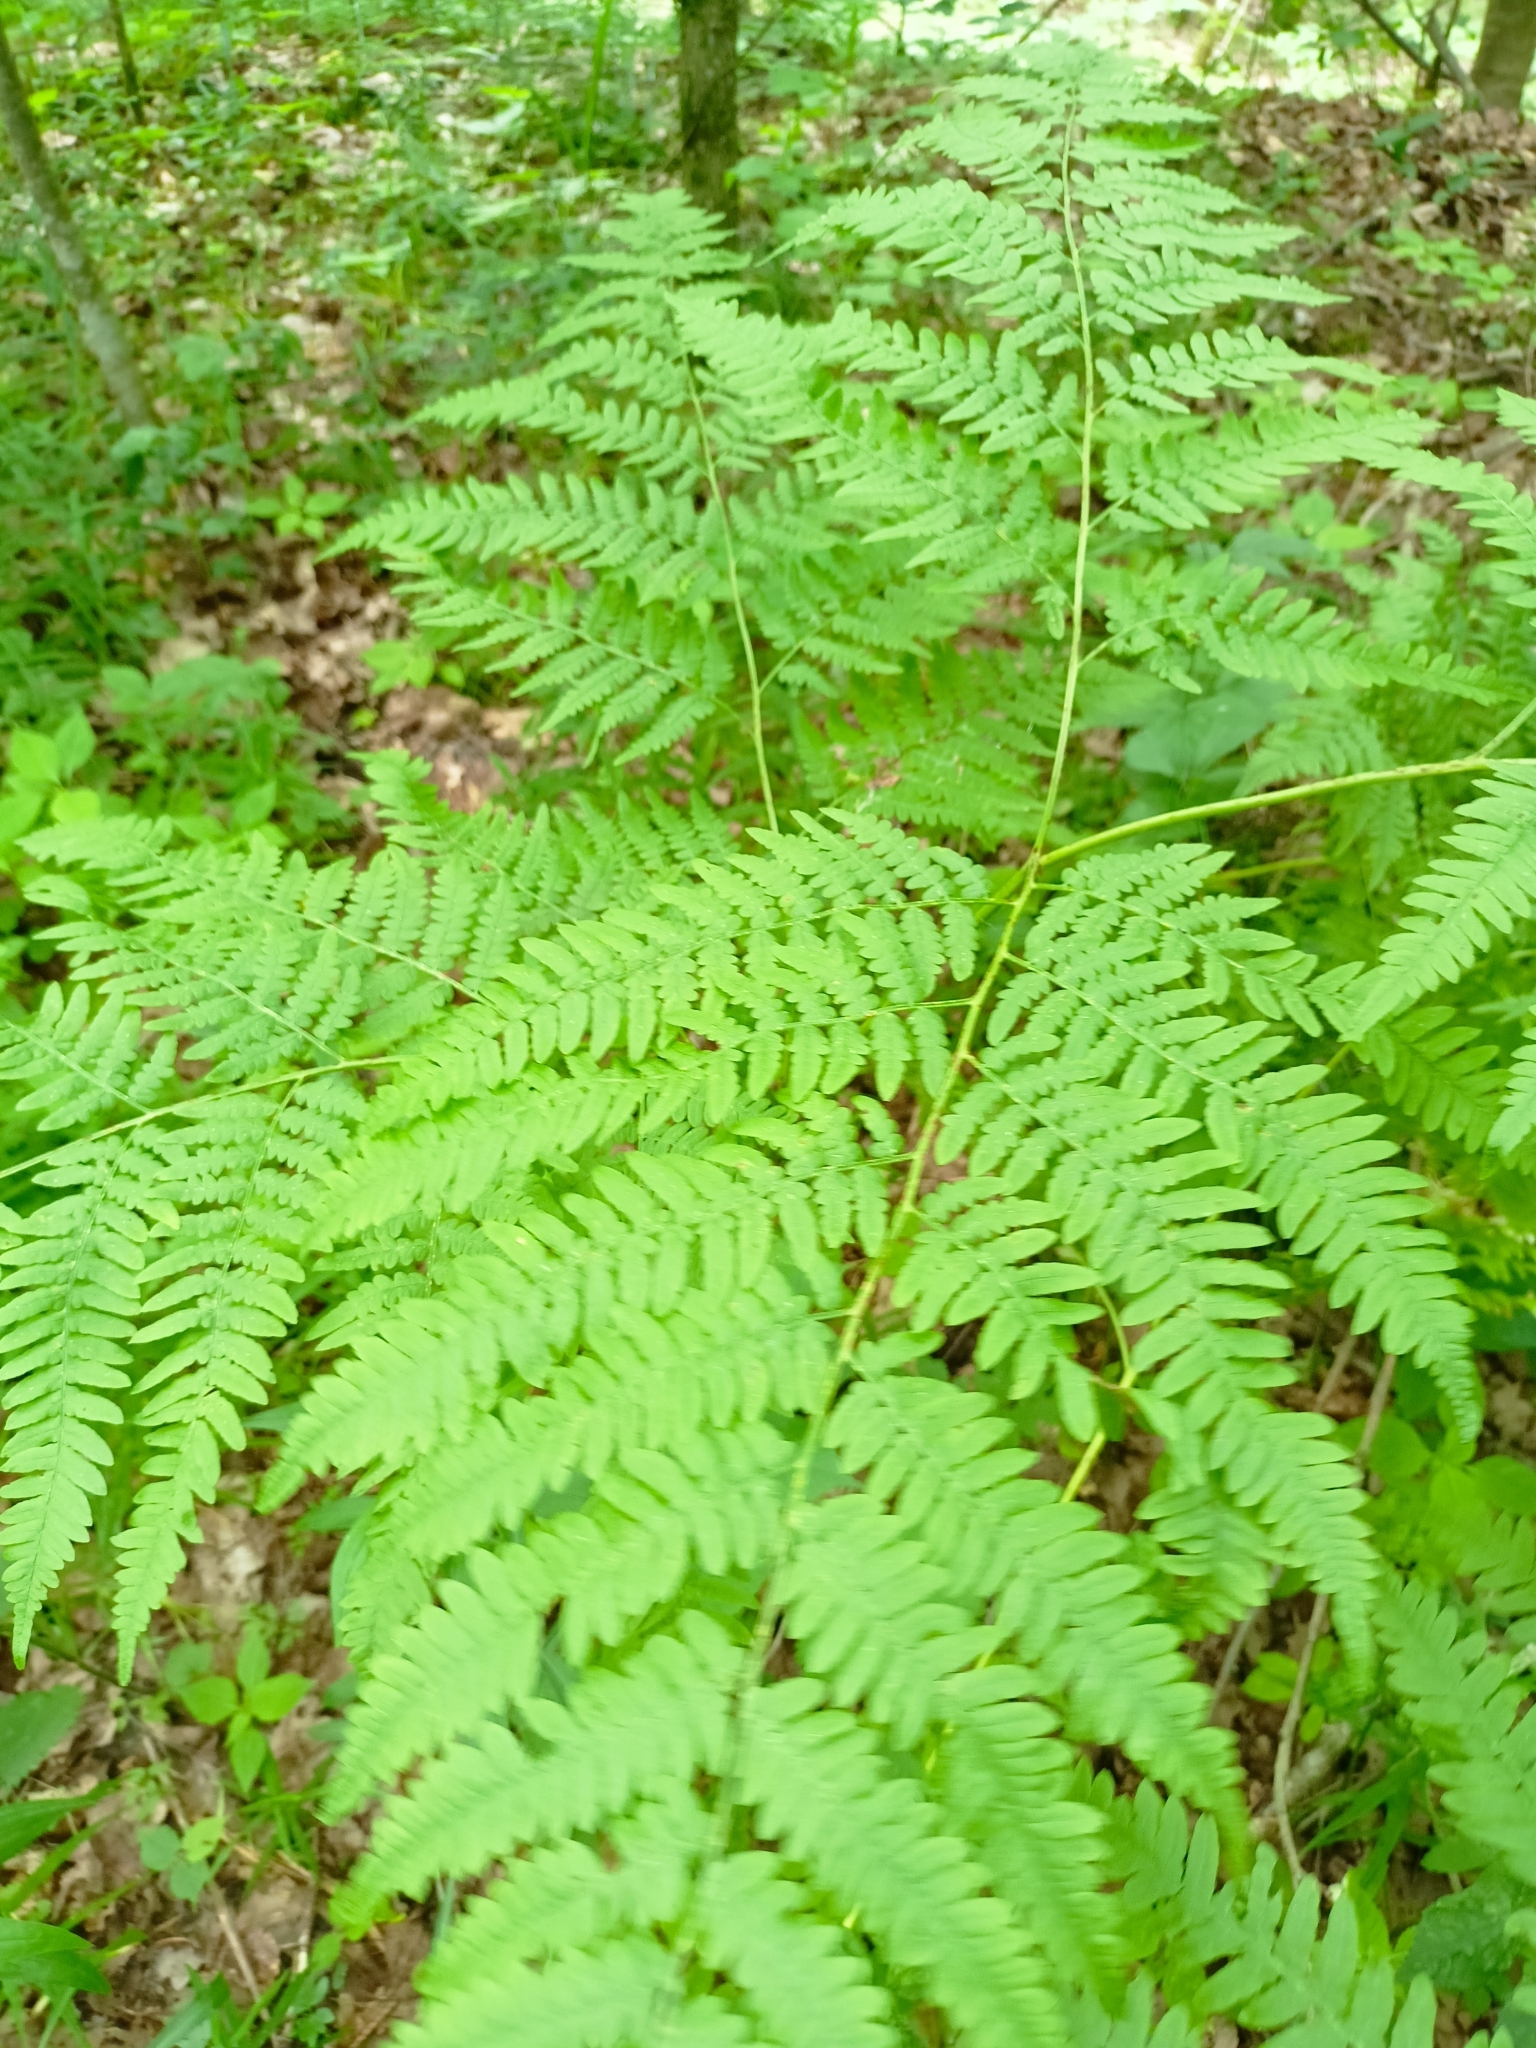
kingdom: Plantae
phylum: Tracheophyta
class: Polypodiopsida
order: Polypodiales
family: Dennstaedtiaceae
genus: Pteridium
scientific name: Pteridium aquilinum
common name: Bracken
